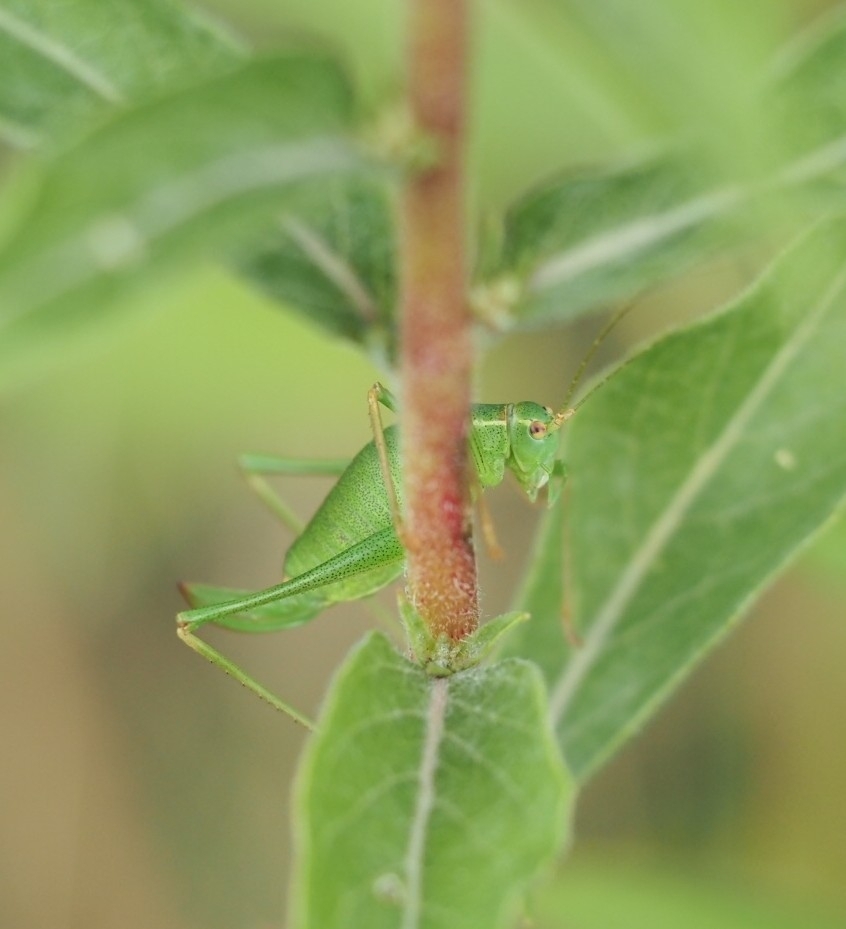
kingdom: Animalia
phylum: Arthropoda
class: Insecta
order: Orthoptera
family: Tettigoniidae
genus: Leptophyes
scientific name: Leptophyes punctatissima
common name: Speckled bush-cricket
